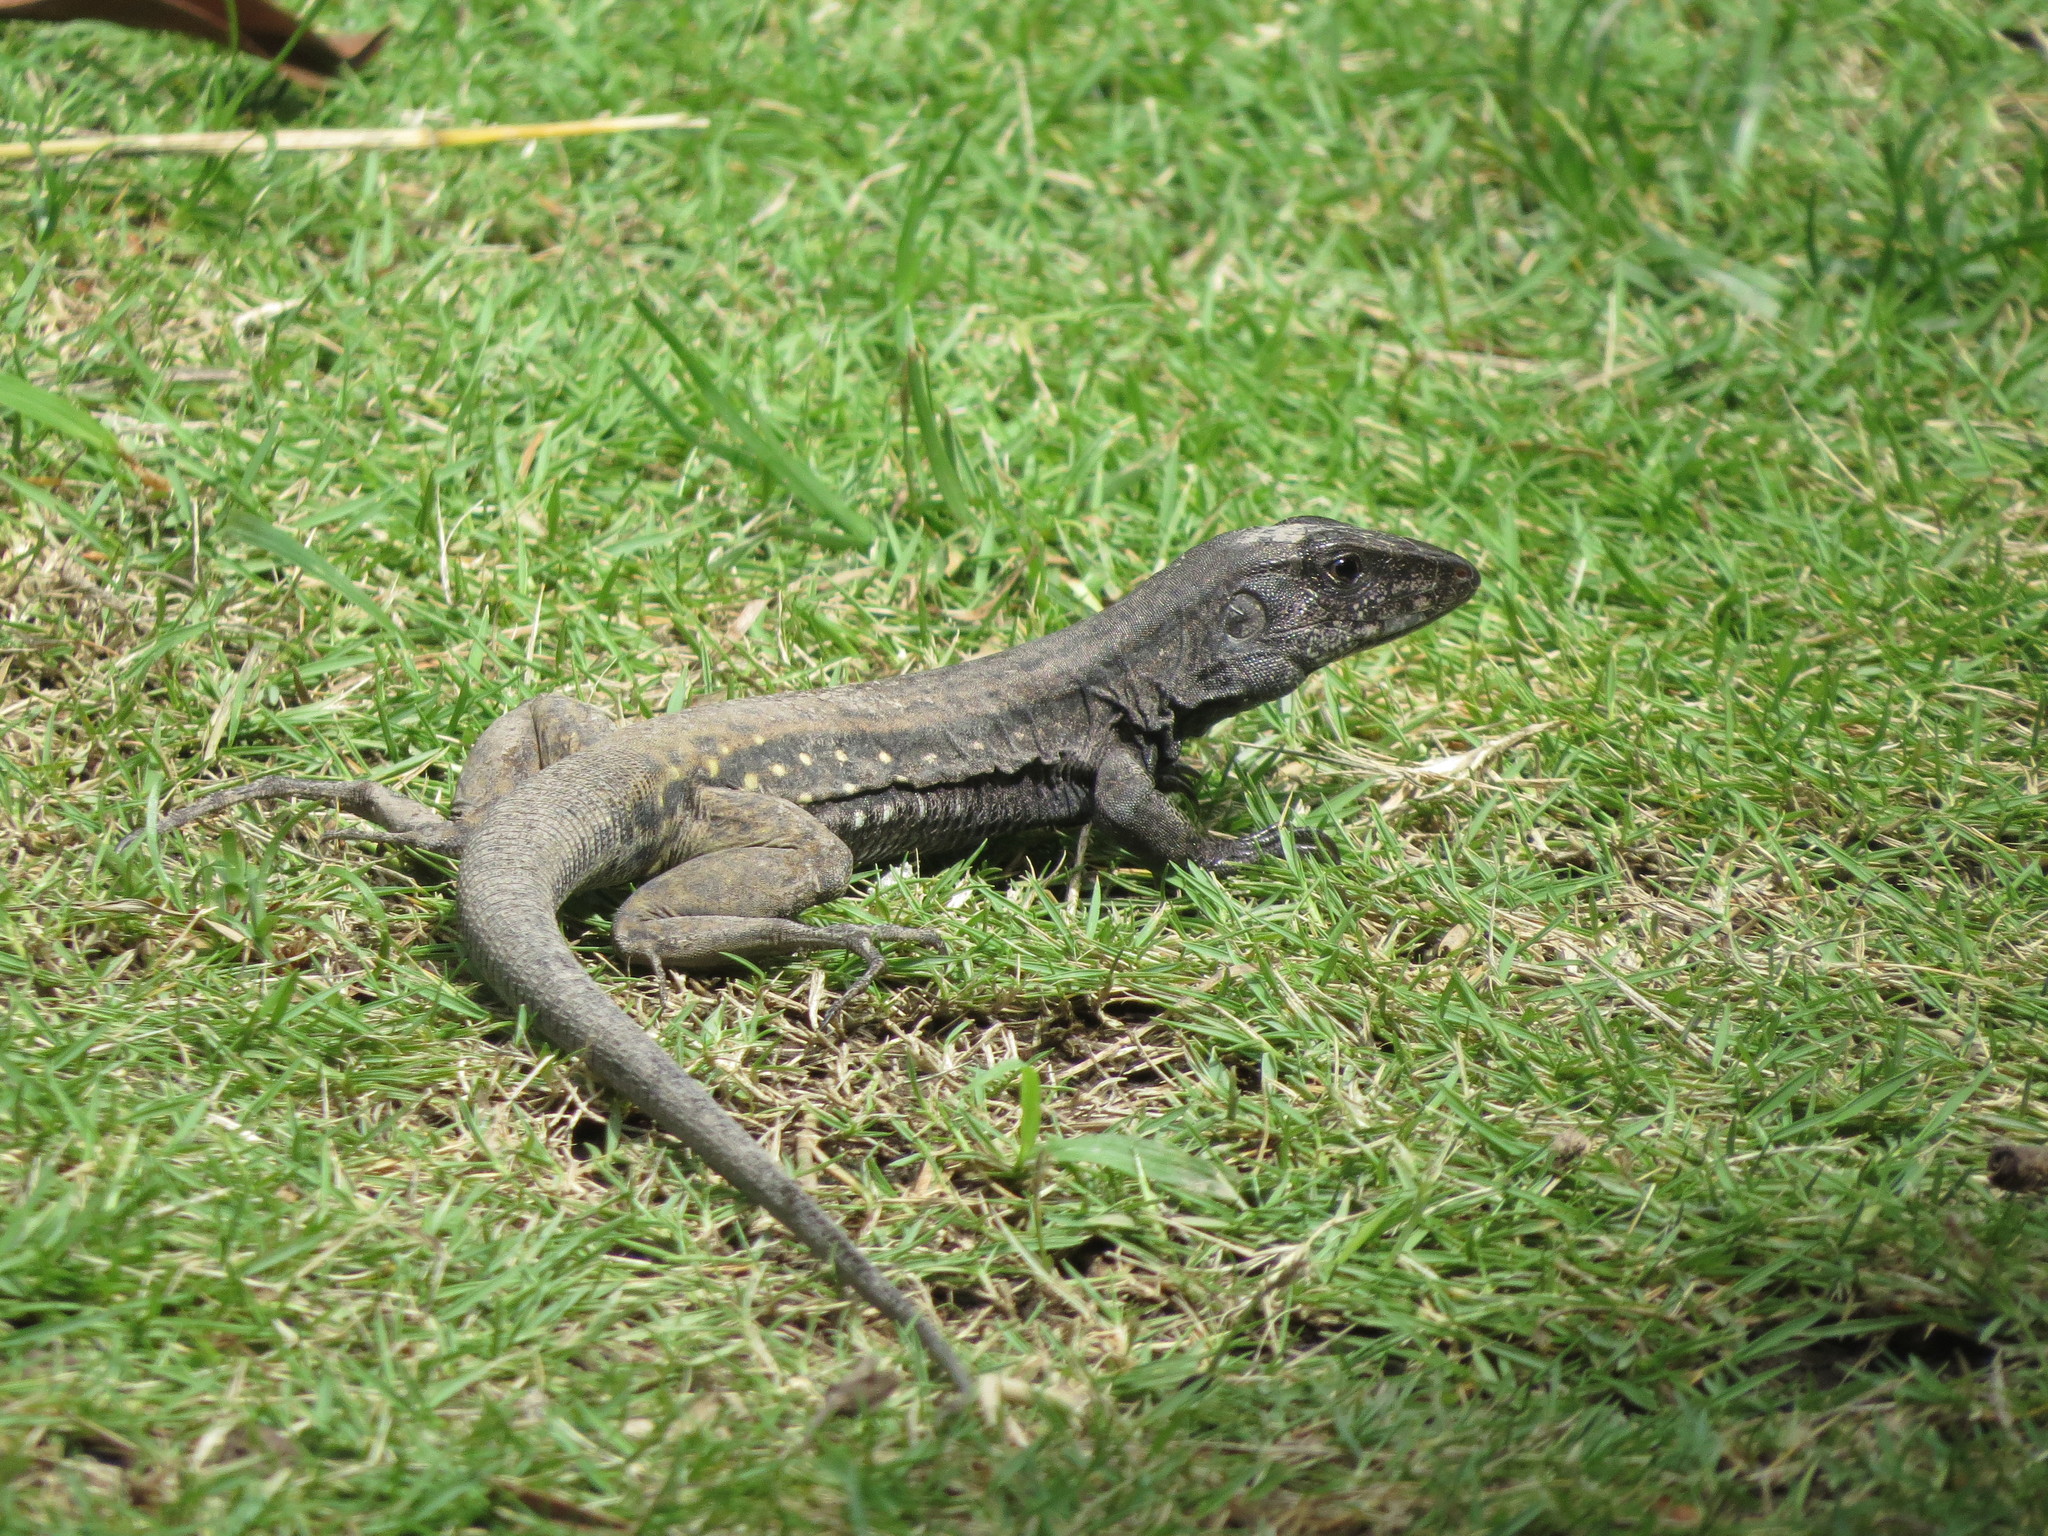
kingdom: Animalia
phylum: Chordata
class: Squamata
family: Teiidae
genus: Ameiva
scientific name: Ameiva fuliginosa
